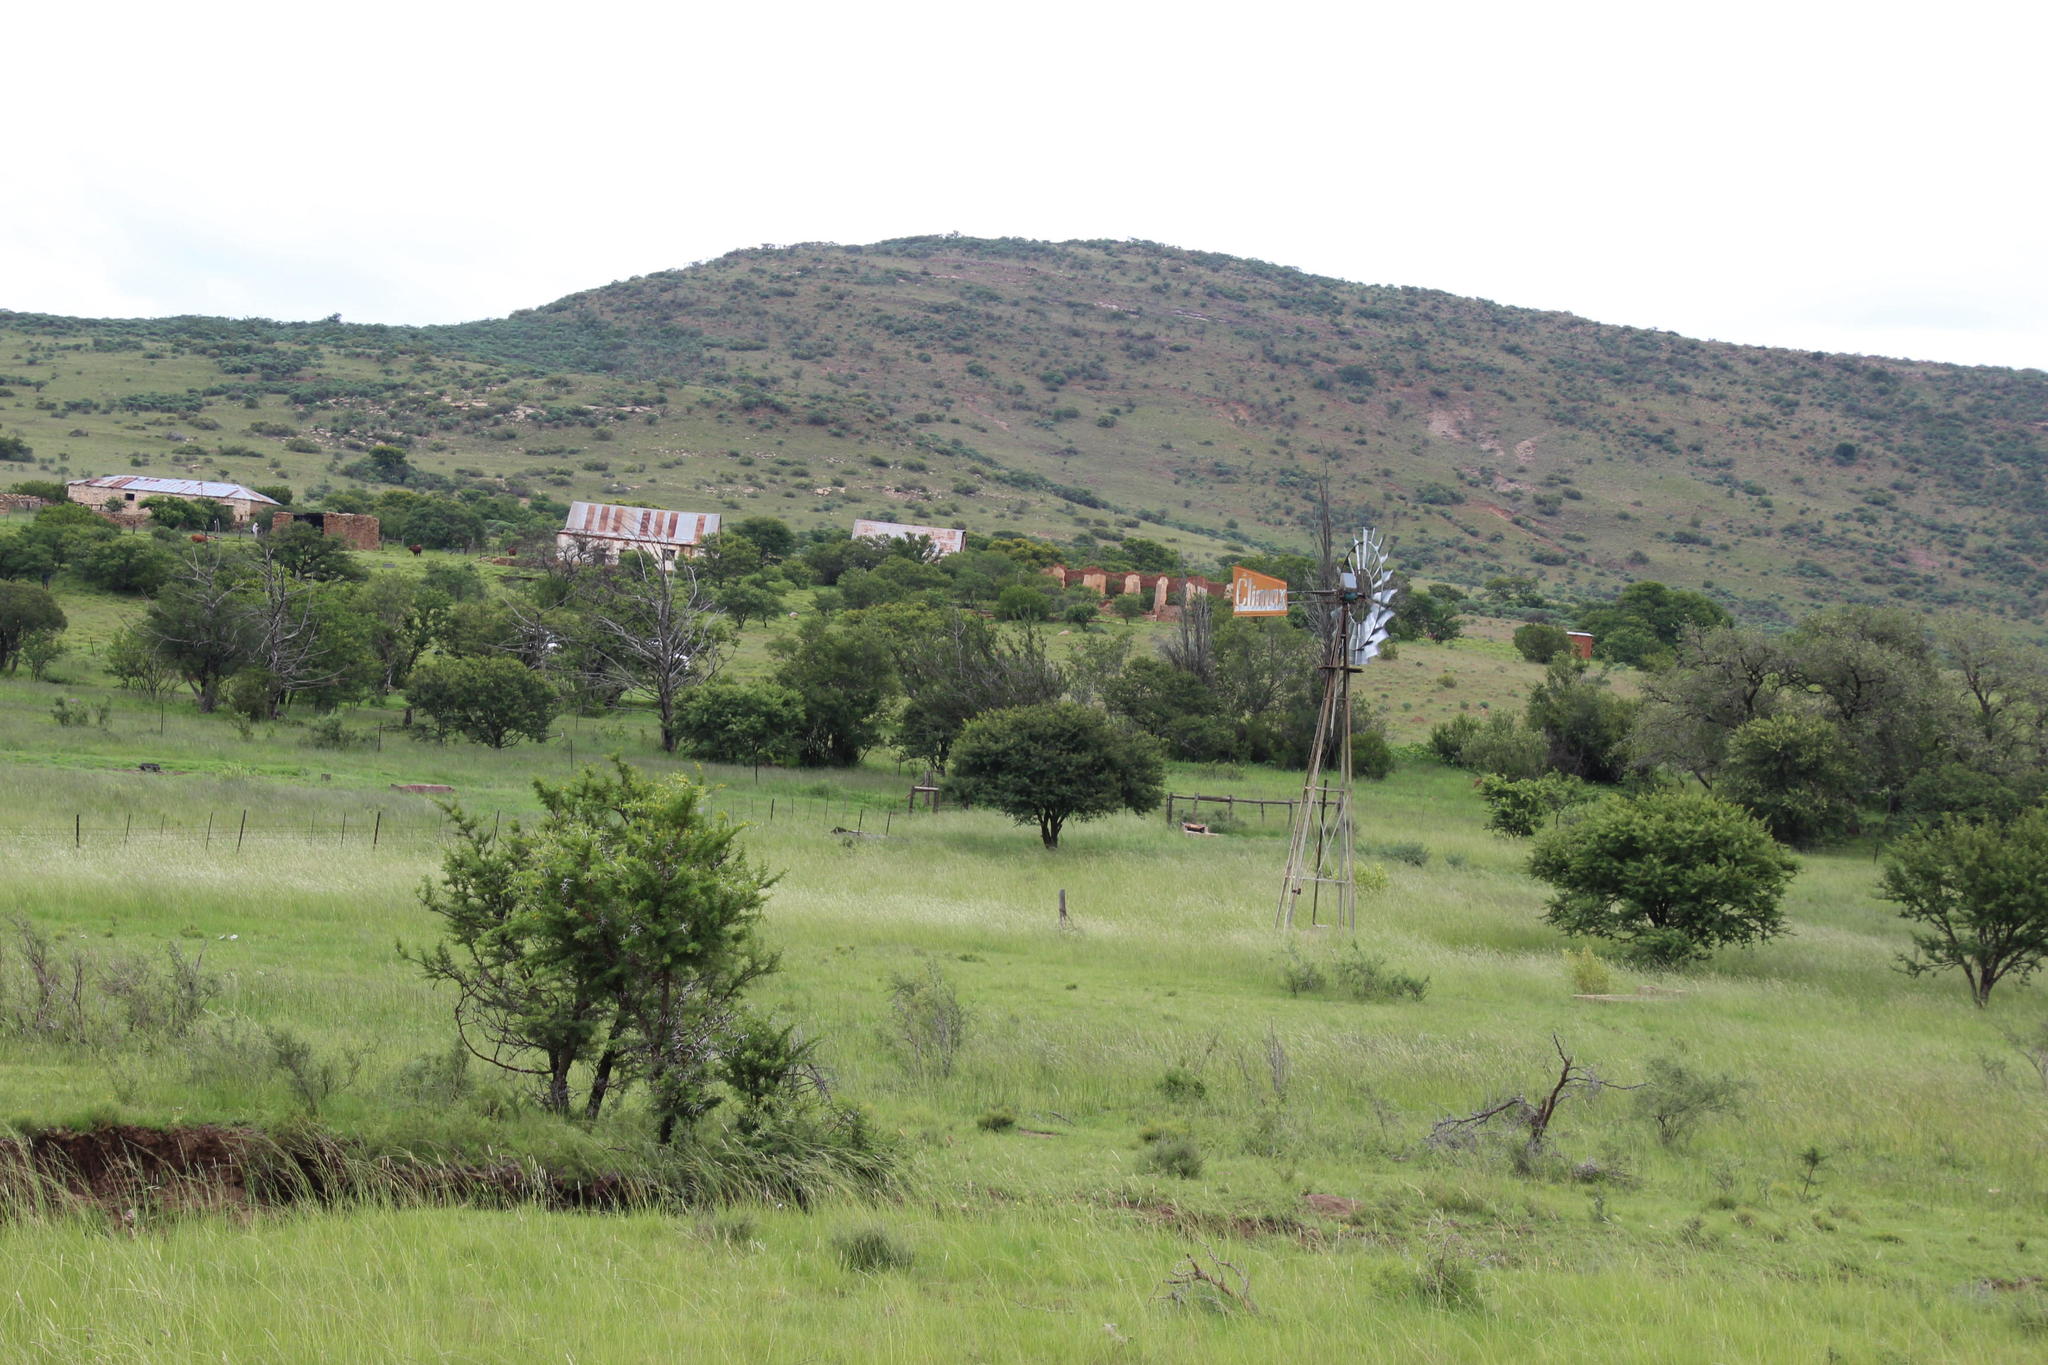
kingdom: Plantae
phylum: Tracheophyta
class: Magnoliopsida
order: Fabales
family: Fabaceae
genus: Vachellia
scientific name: Vachellia karroo
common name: Sweet thorn
